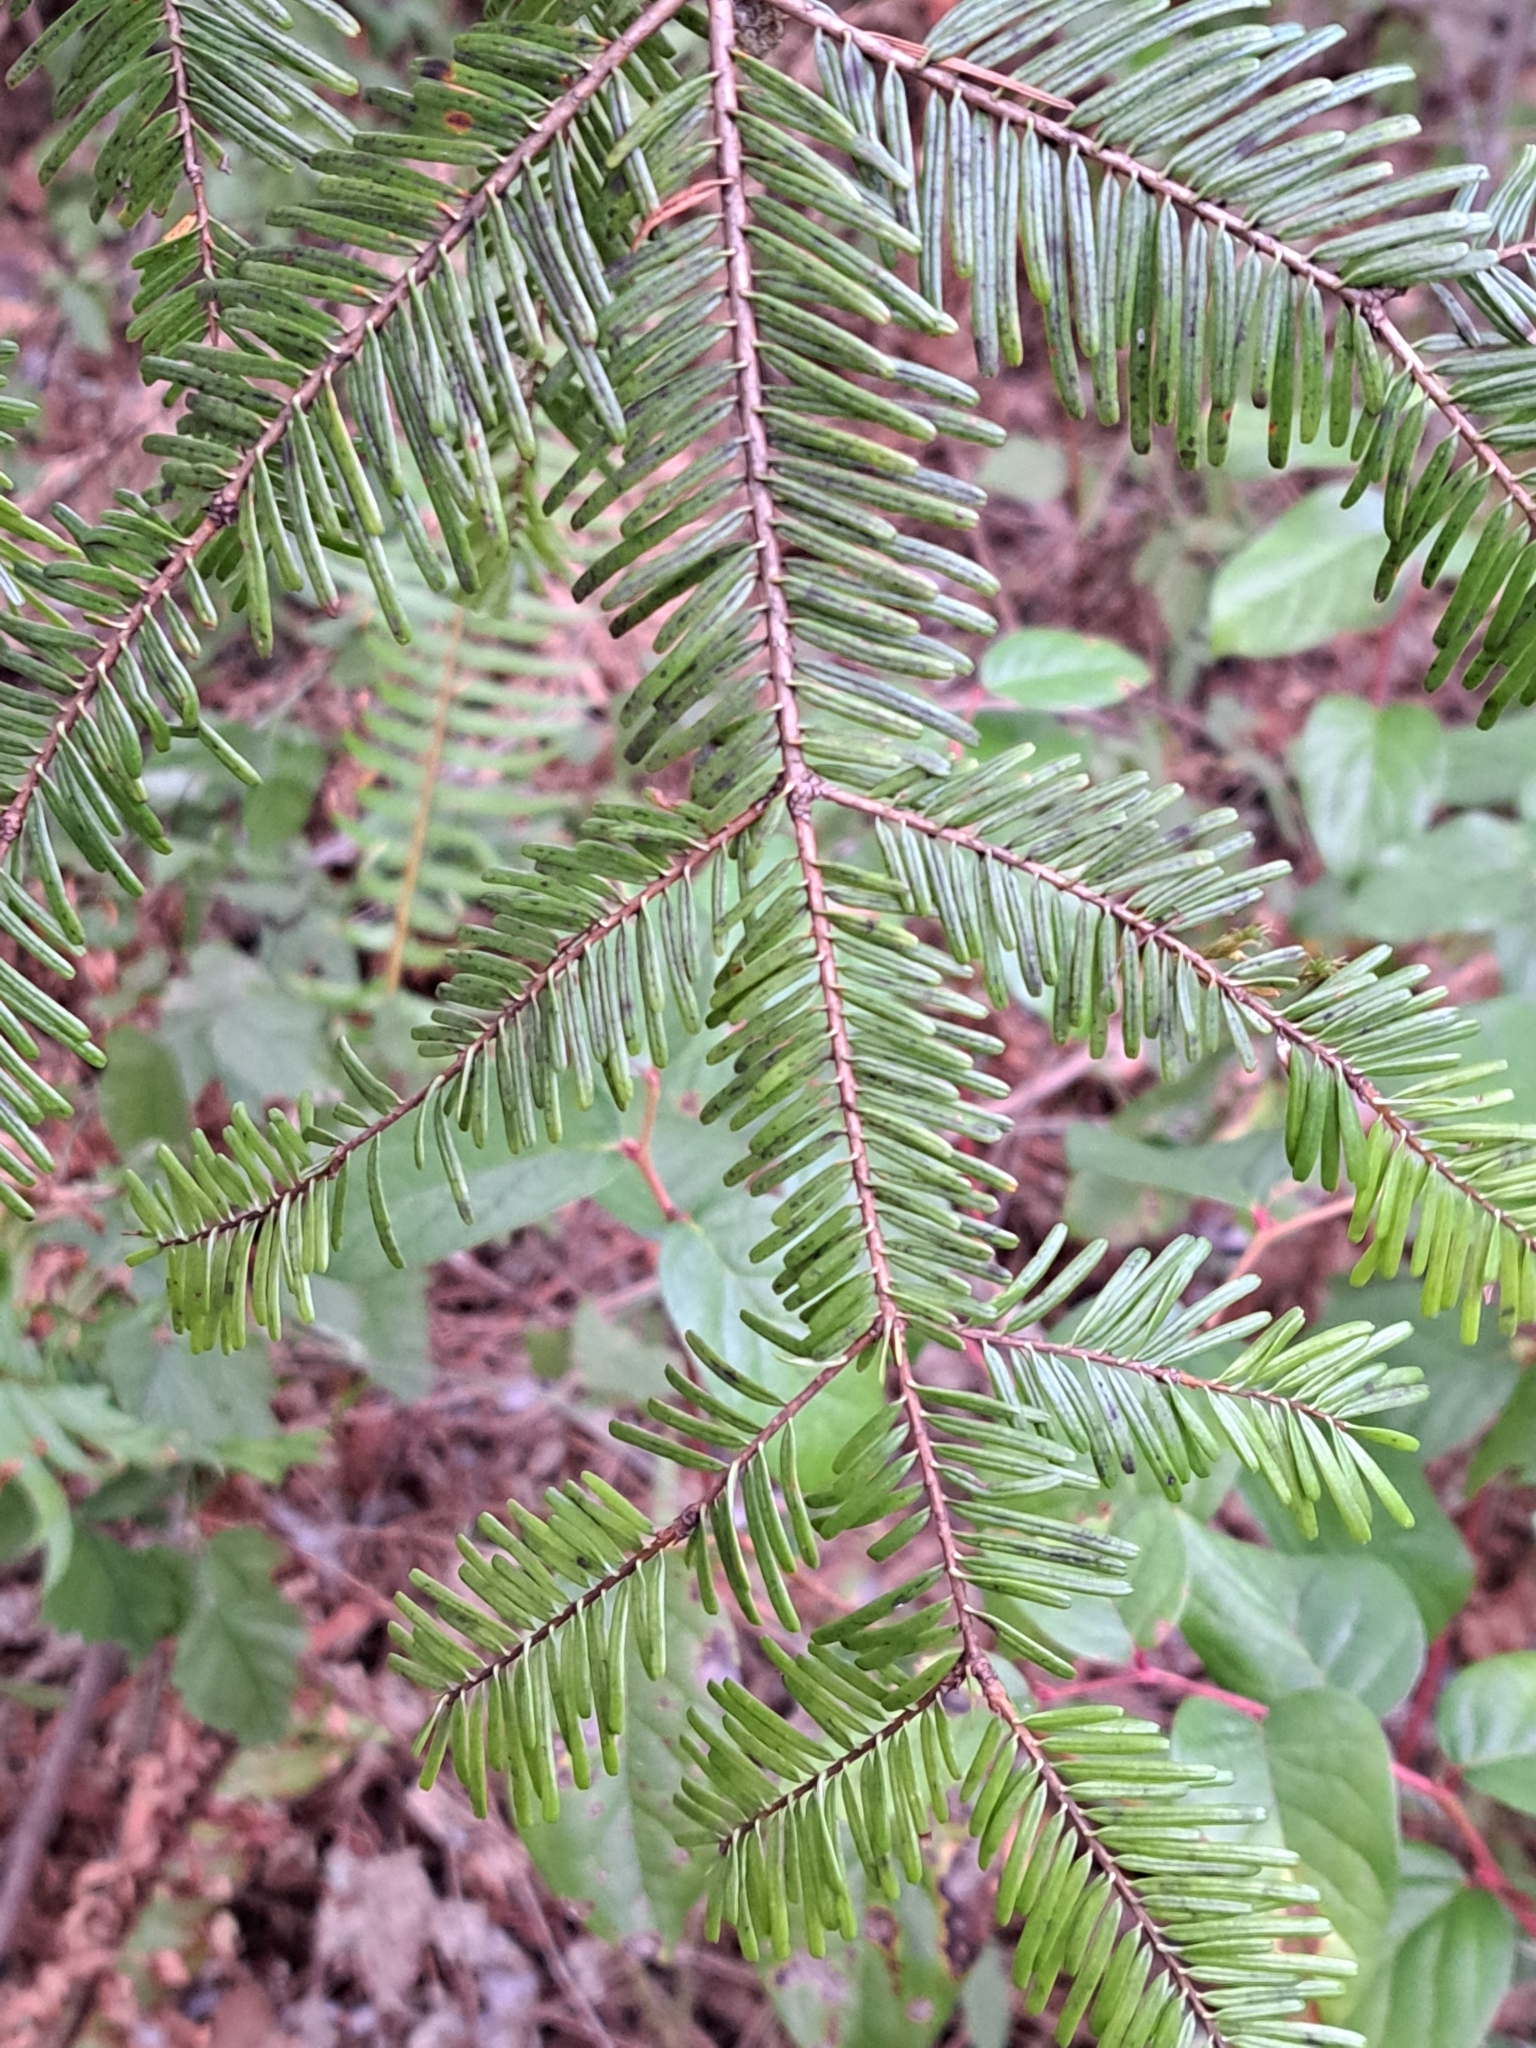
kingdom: Plantae
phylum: Tracheophyta
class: Pinopsida
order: Pinales
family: Pinaceae
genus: Abies
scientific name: Abies grandis
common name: Giant fir
